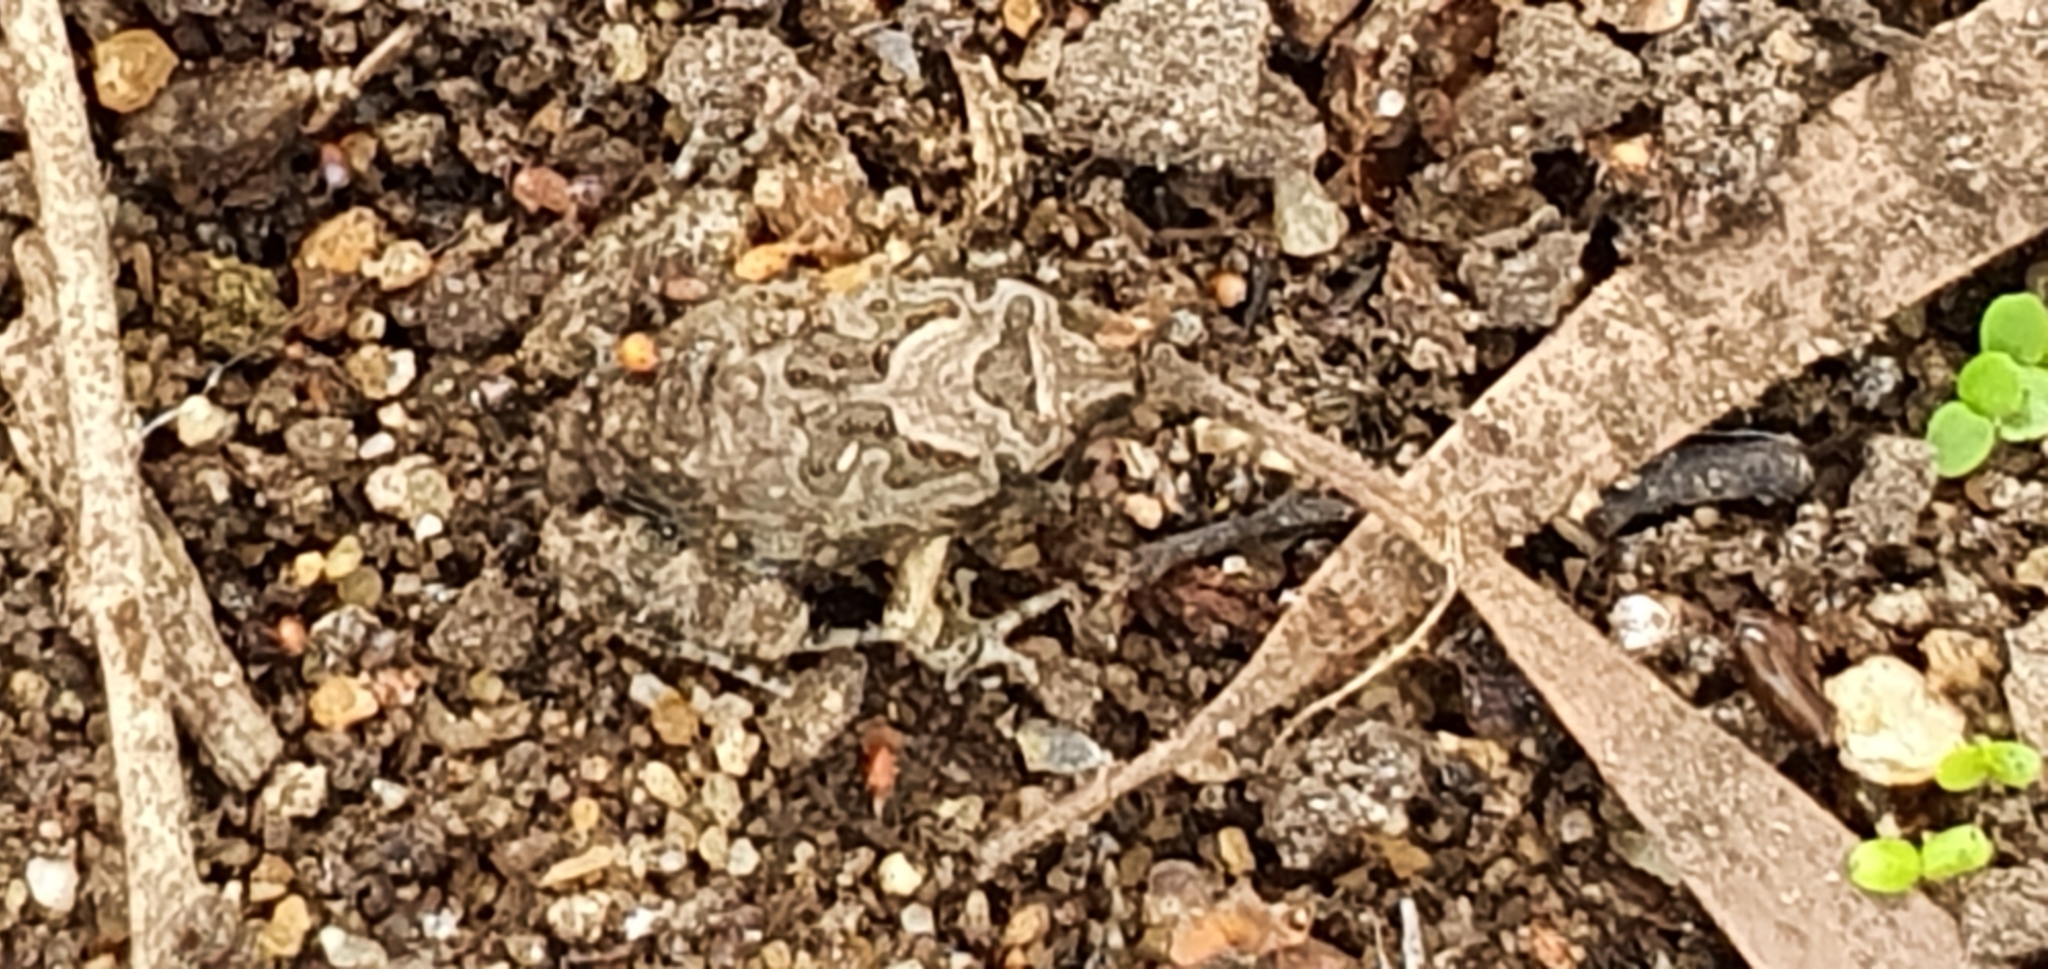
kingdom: Animalia
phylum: Chordata
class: Amphibia
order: Anura
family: Limnodynastidae
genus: Platyplectrum
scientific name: Platyplectrum ornatum
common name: Ornate burrowing frog
